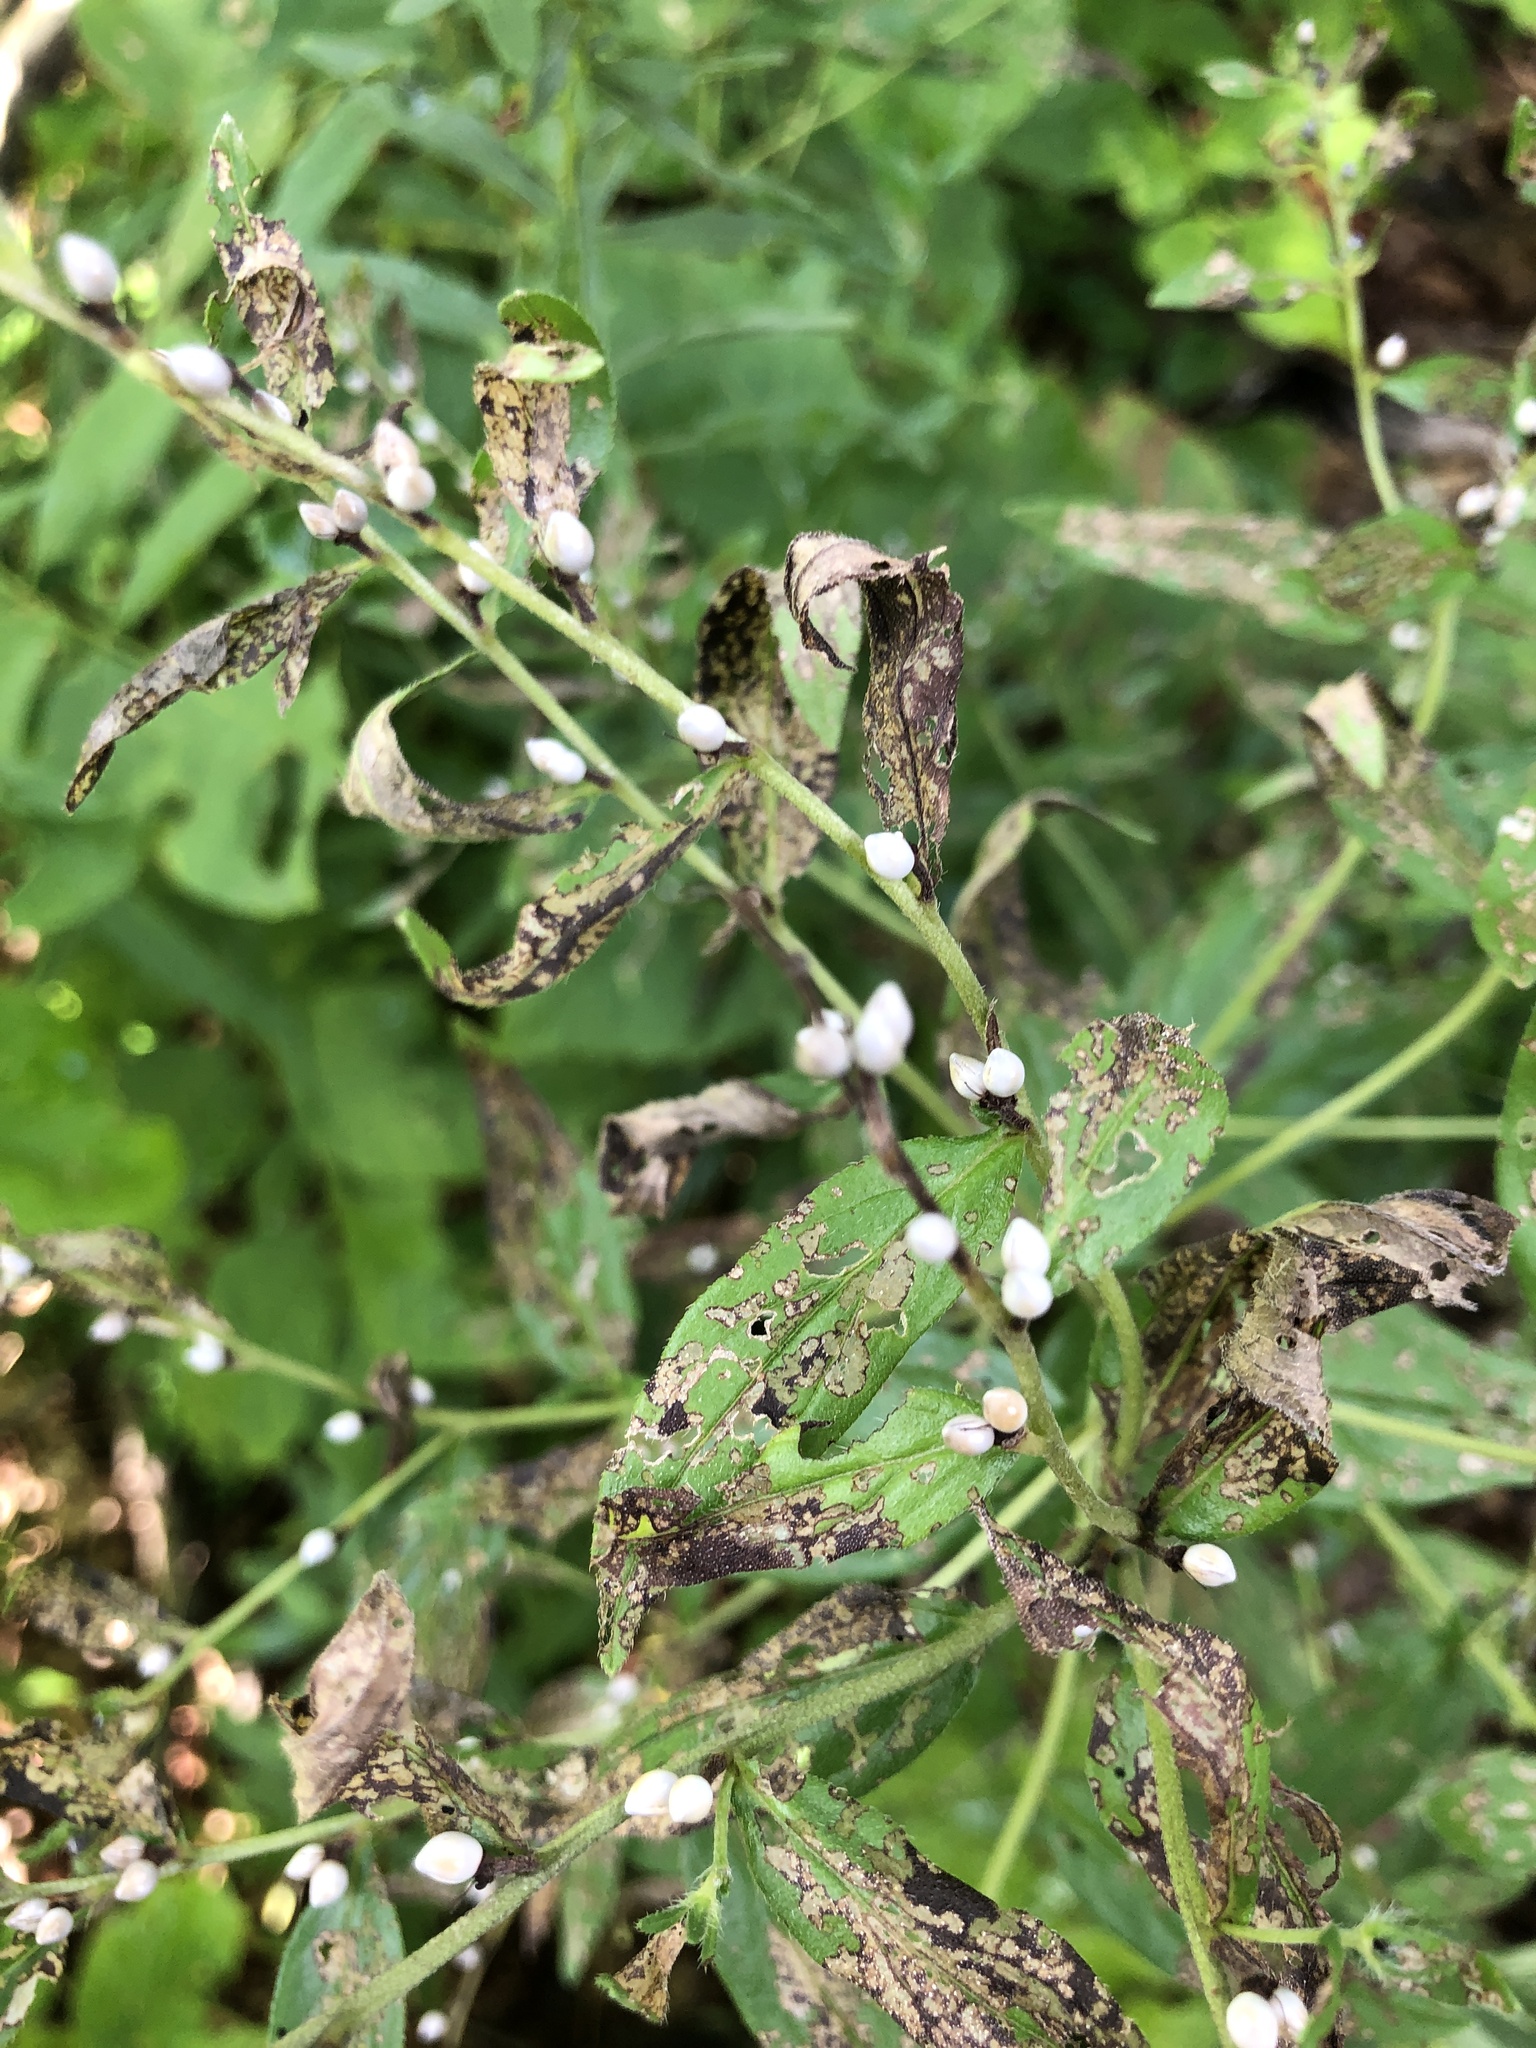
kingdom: Plantae
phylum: Tracheophyta
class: Magnoliopsida
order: Boraginales
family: Boraginaceae
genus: Lithospermum
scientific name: Lithospermum officinale
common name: Common gromwell
